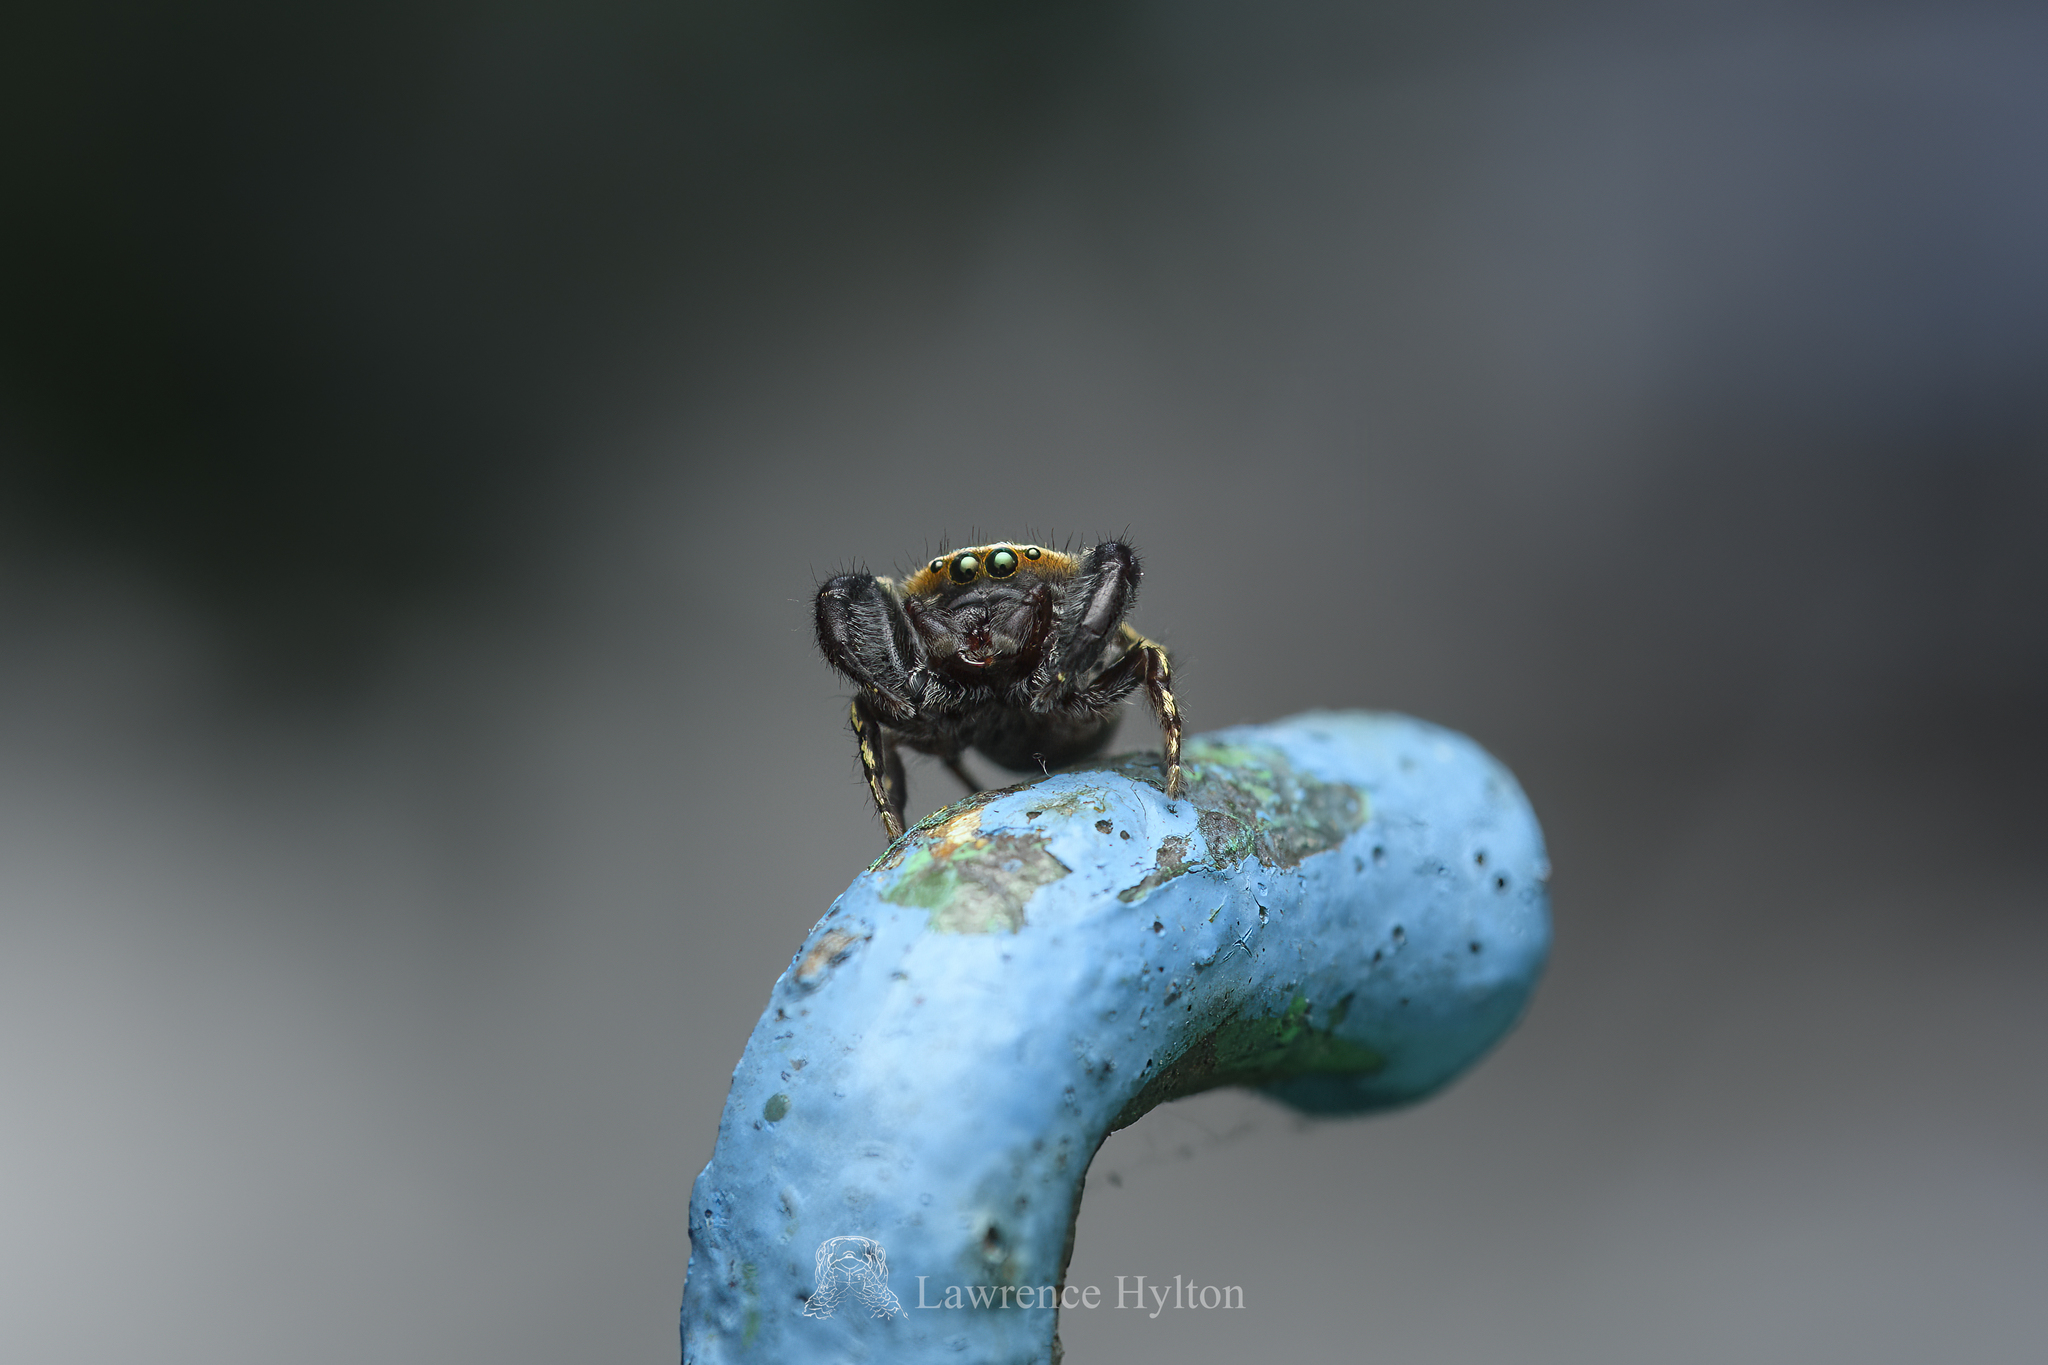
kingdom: Animalia
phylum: Arthropoda
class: Arachnida
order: Araneae
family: Salticidae
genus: Rhene
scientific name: Rhene flavicomans
